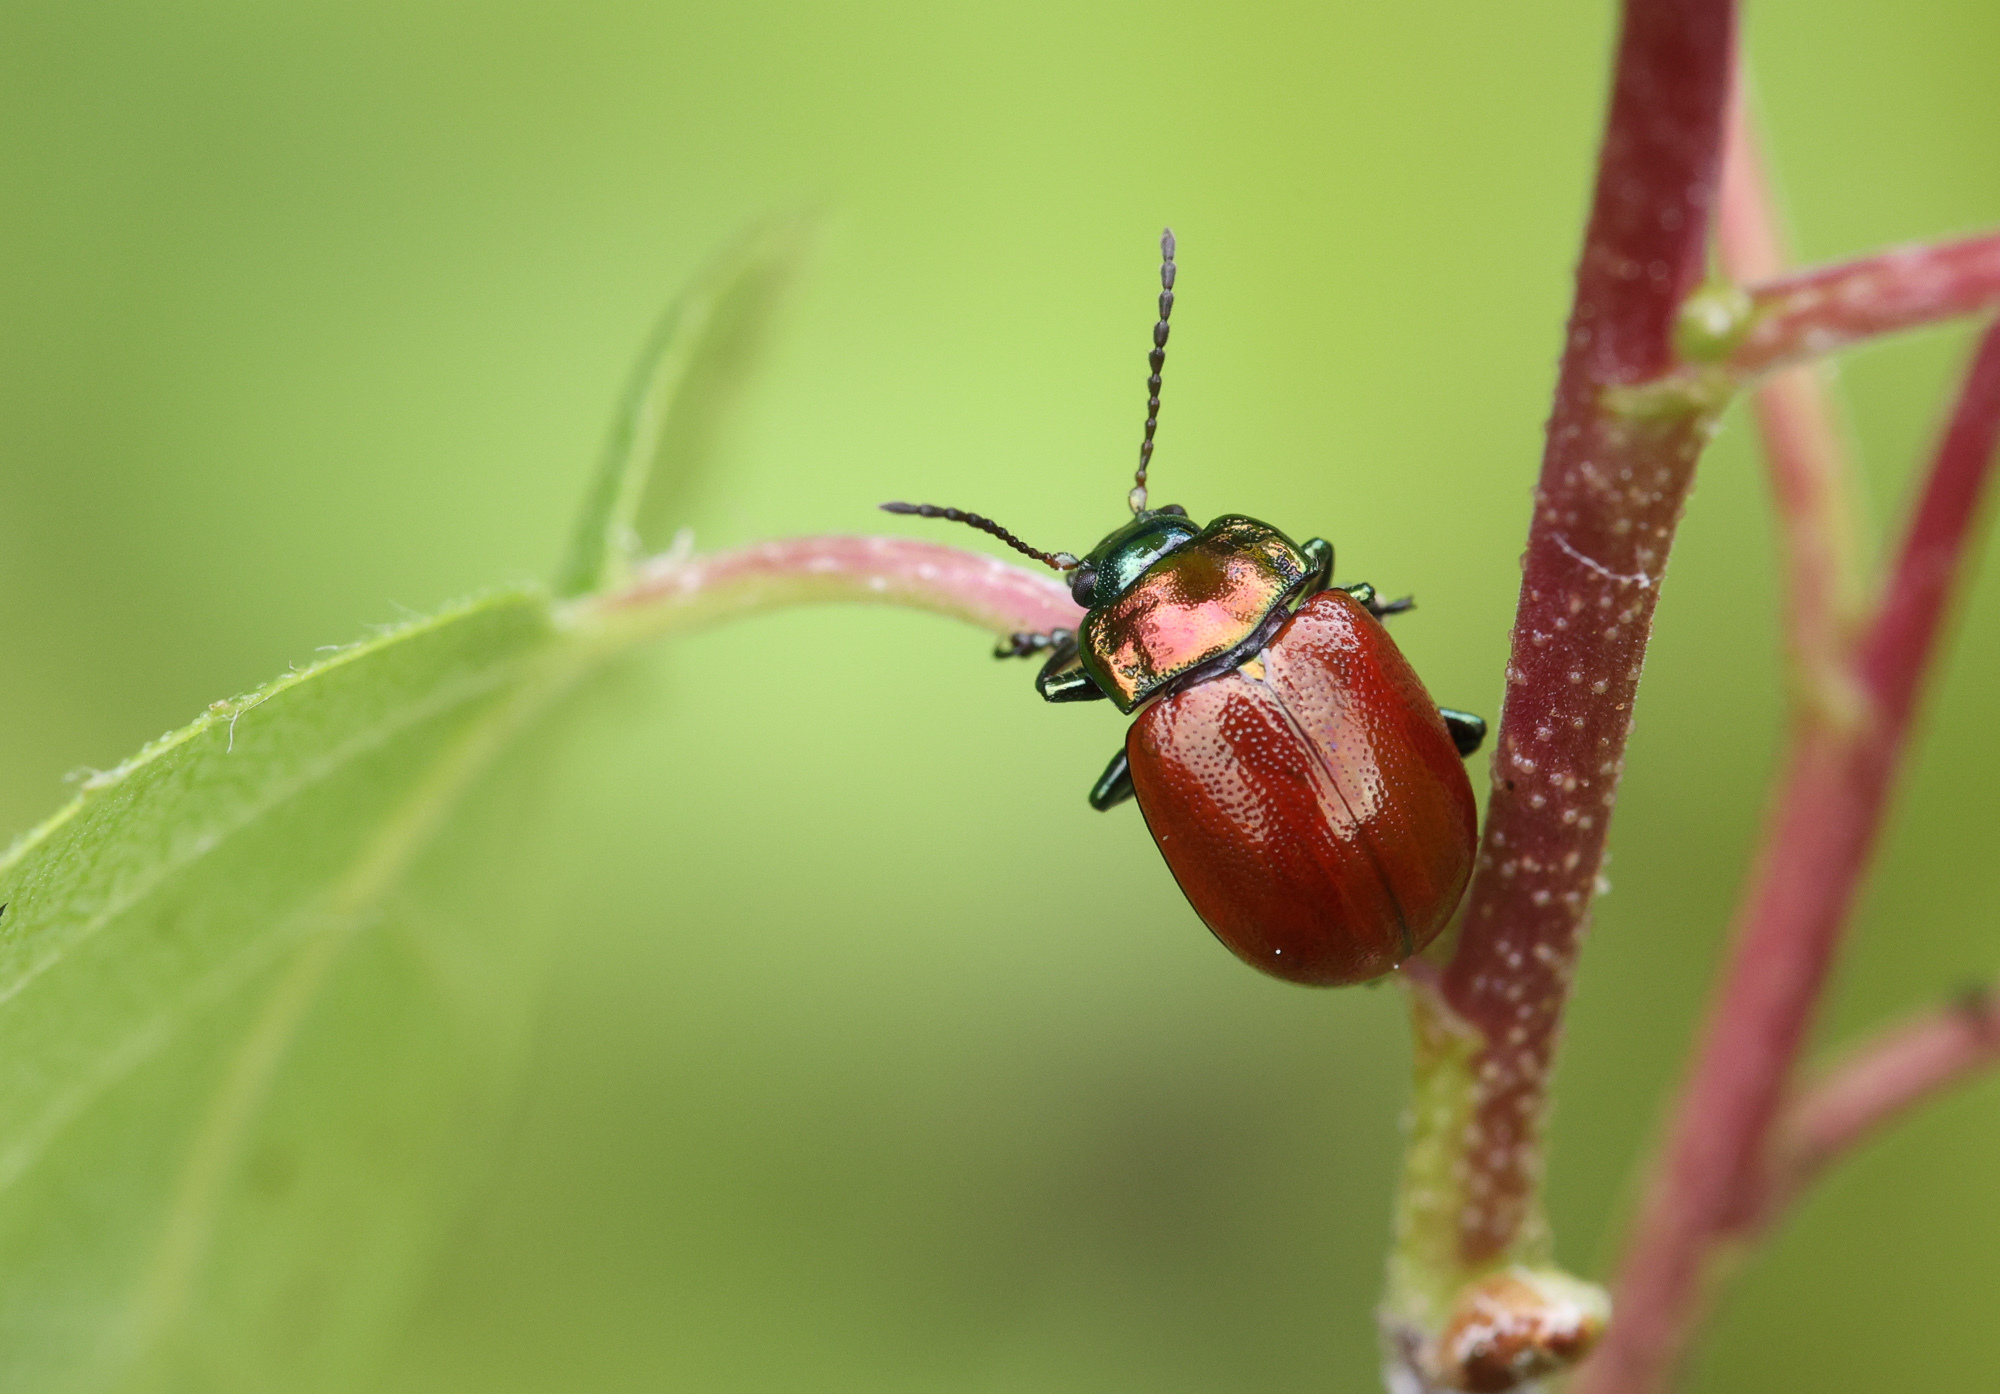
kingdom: Animalia
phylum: Arthropoda
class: Insecta
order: Coleoptera
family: Chrysomelidae
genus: Chrysomela
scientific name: Chrysomela polita
